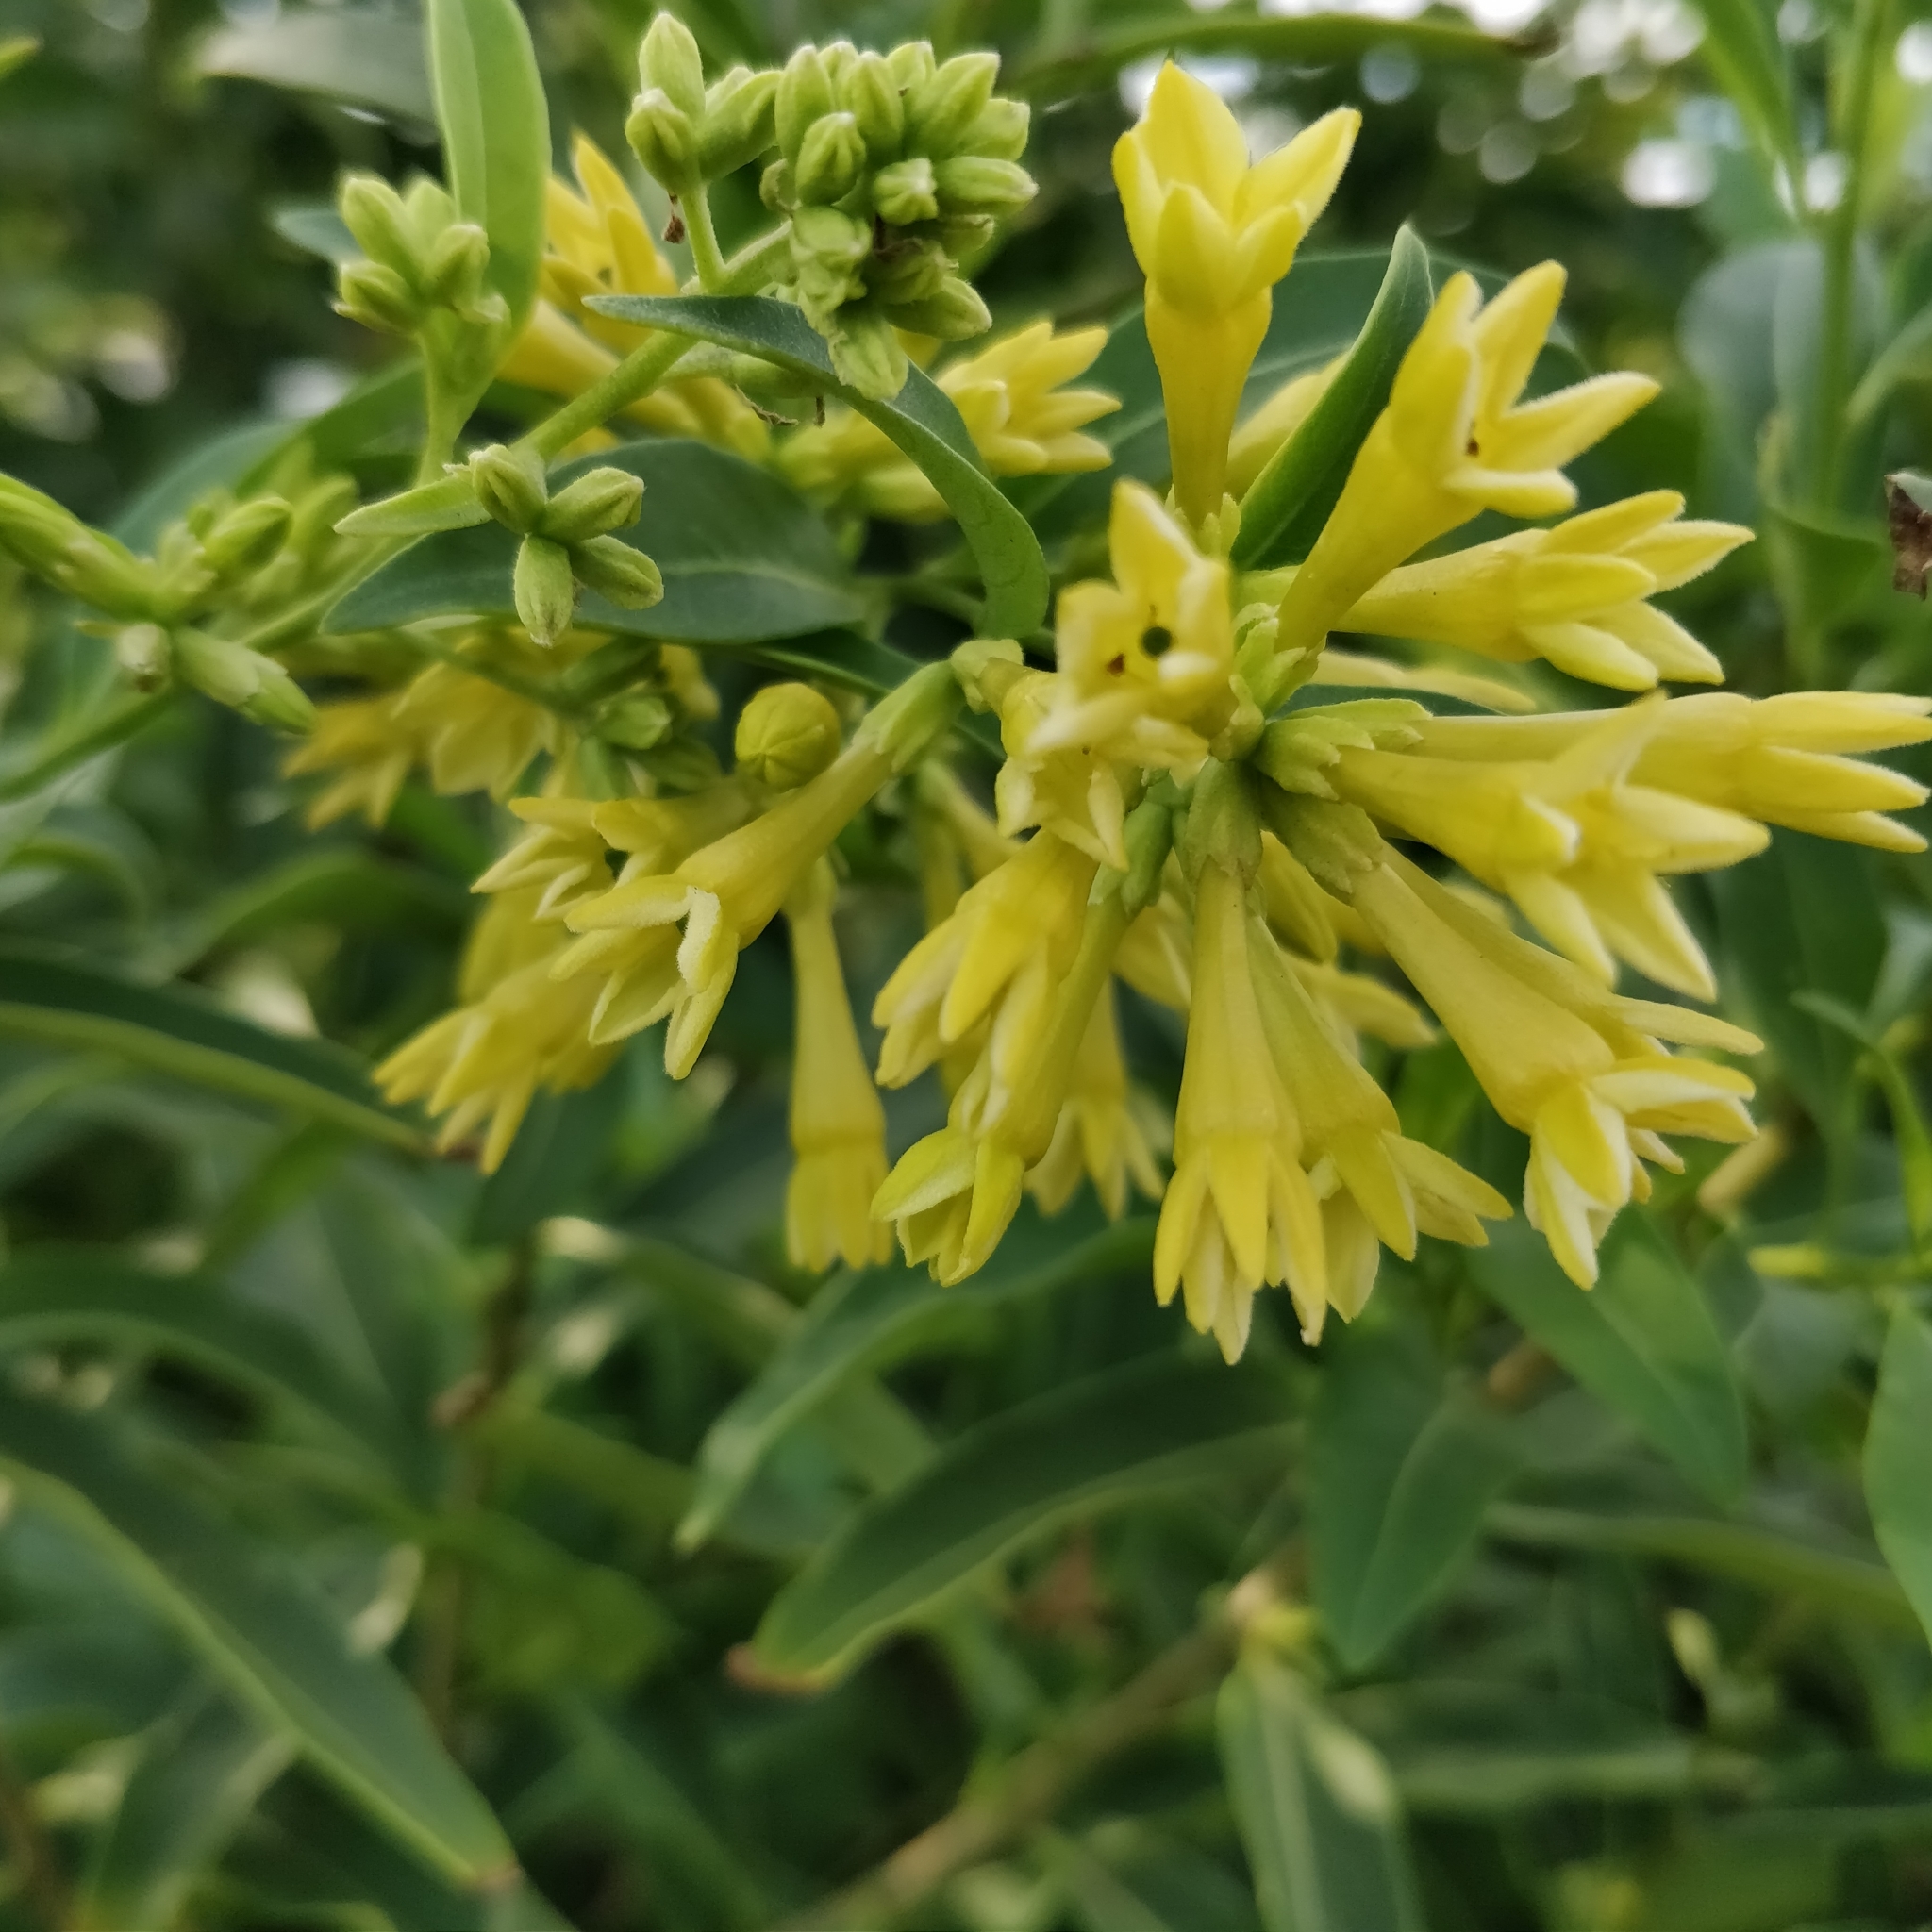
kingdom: Plantae
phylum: Tracheophyta
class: Magnoliopsida
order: Solanales
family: Solanaceae
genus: Cestrum
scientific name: Cestrum parqui
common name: Chilean cestrum
